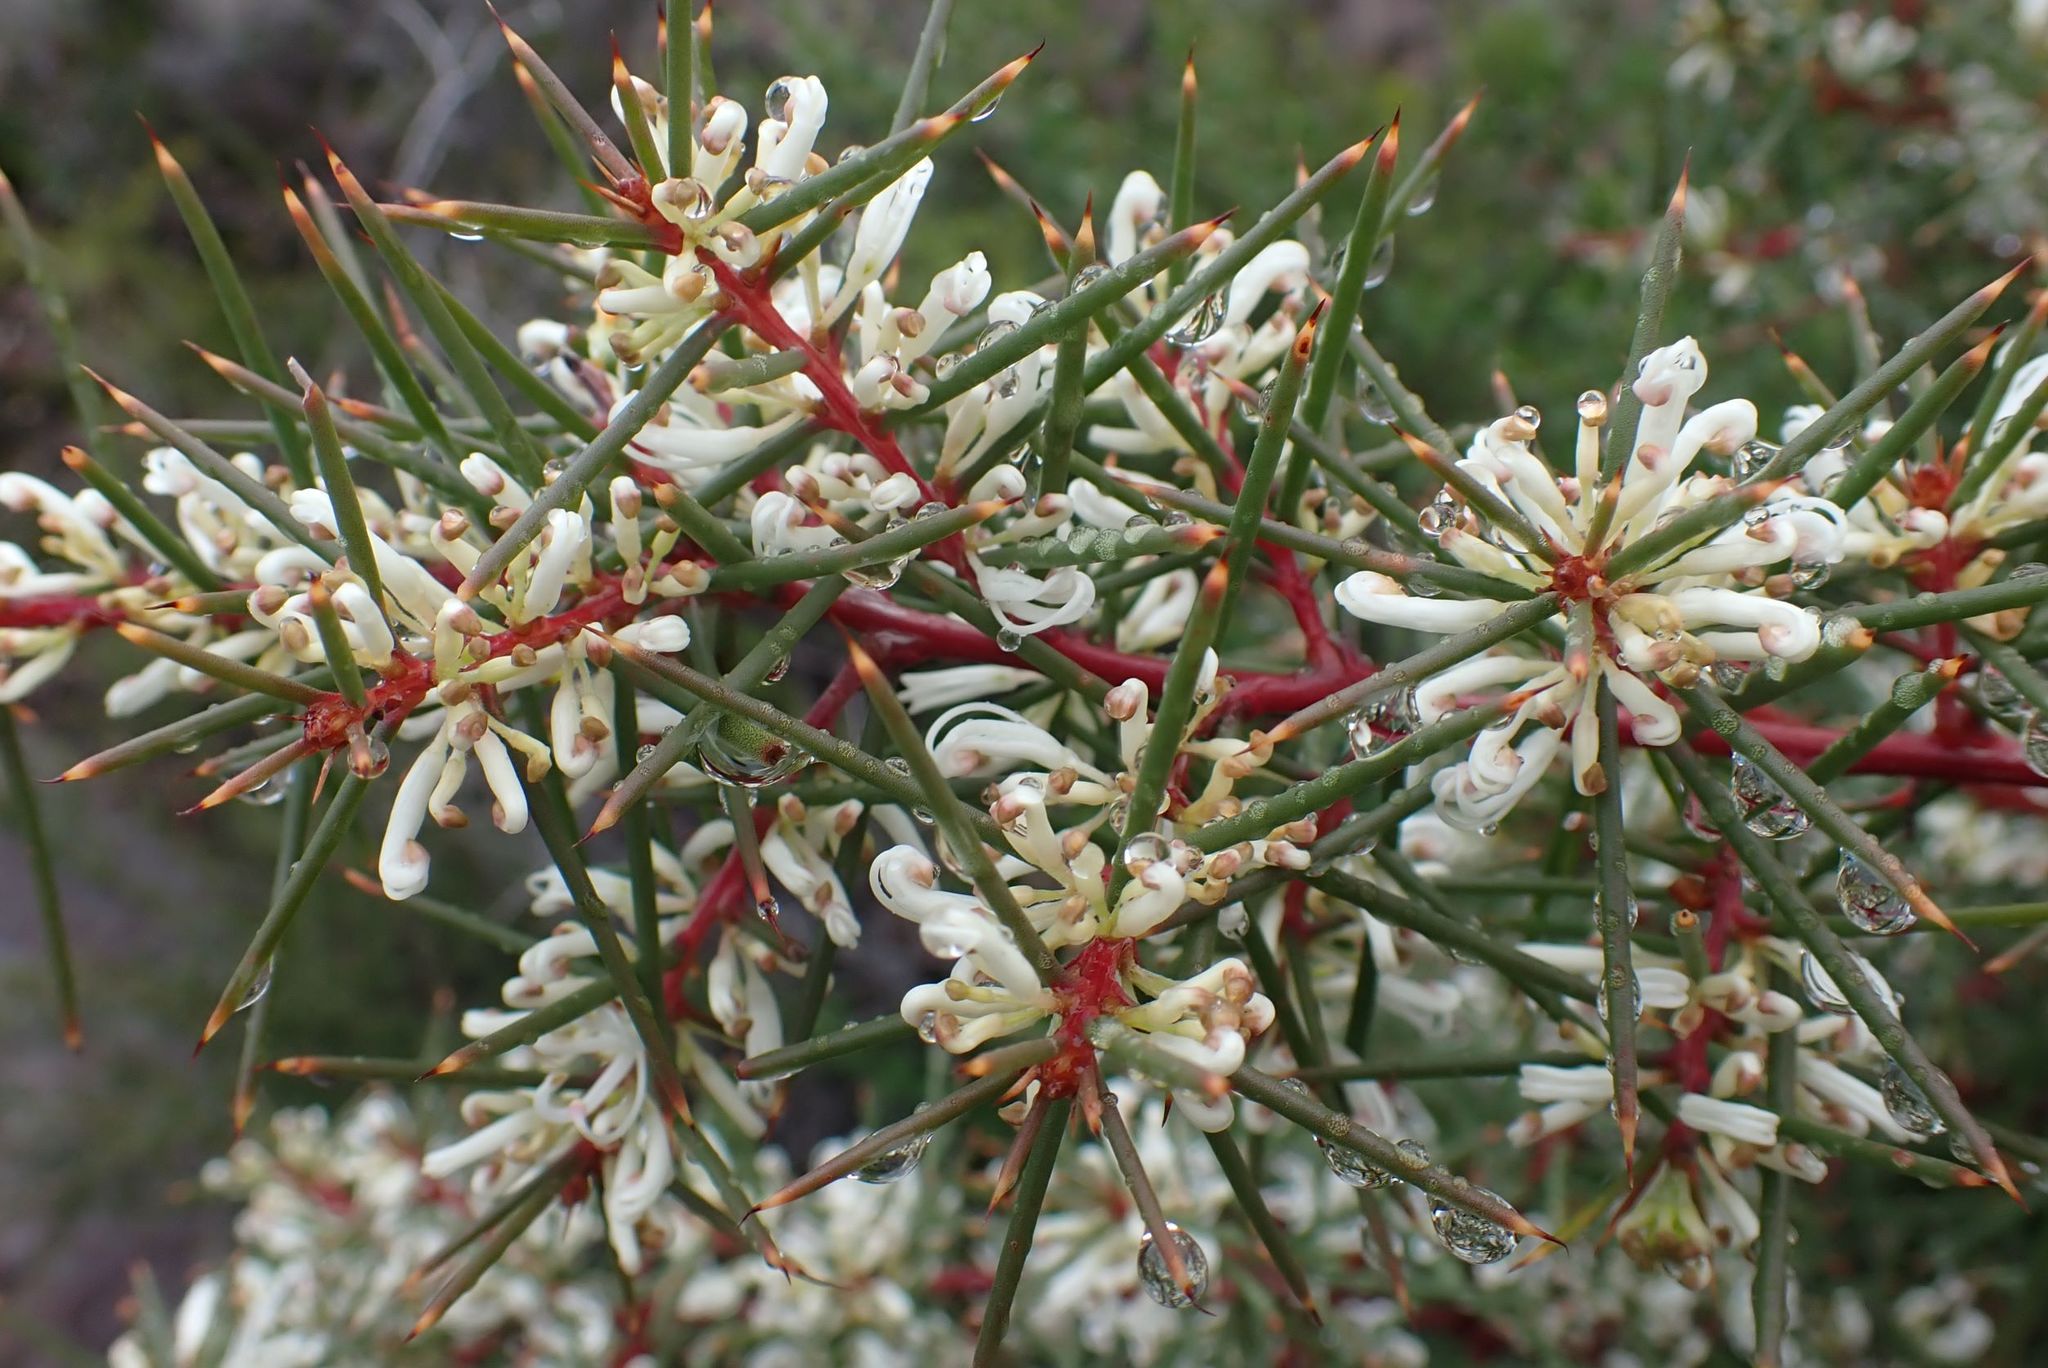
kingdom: Plantae
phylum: Tracheophyta
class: Magnoliopsida
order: Proteales
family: Proteaceae
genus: Hakea
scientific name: Hakea decurrens
